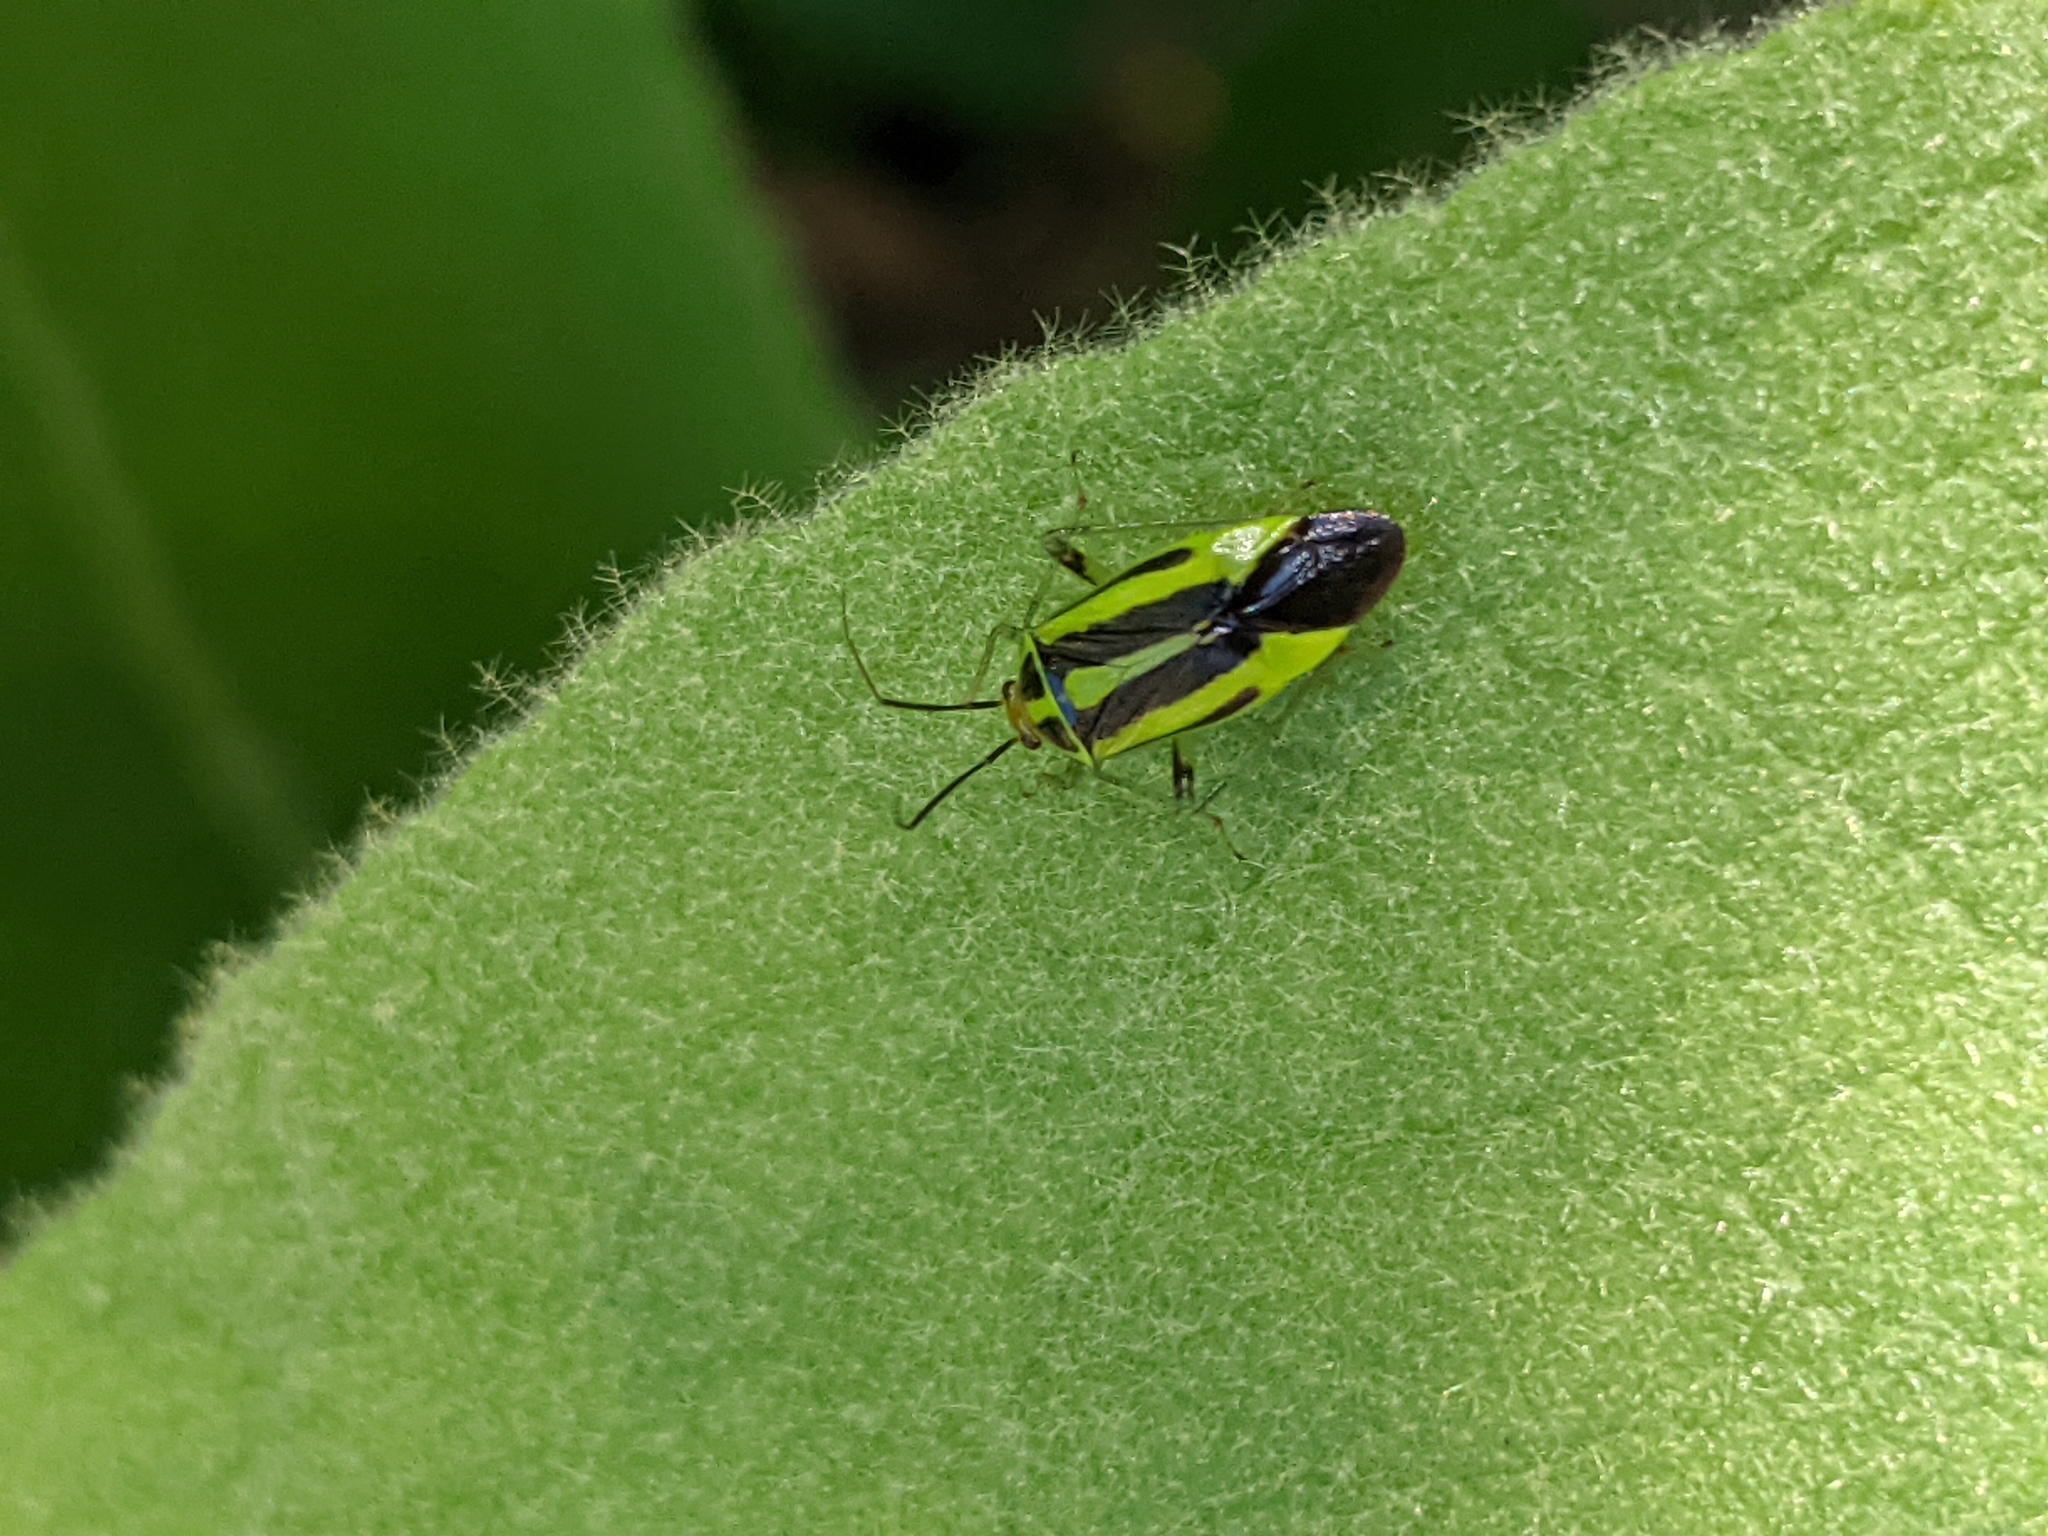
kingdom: Animalia
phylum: Arthropoda
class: Insecta
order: Hemiptera
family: Miridae
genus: Poecilocapsus
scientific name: Poecilocapsus lineatus
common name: Four-lined plant bug
